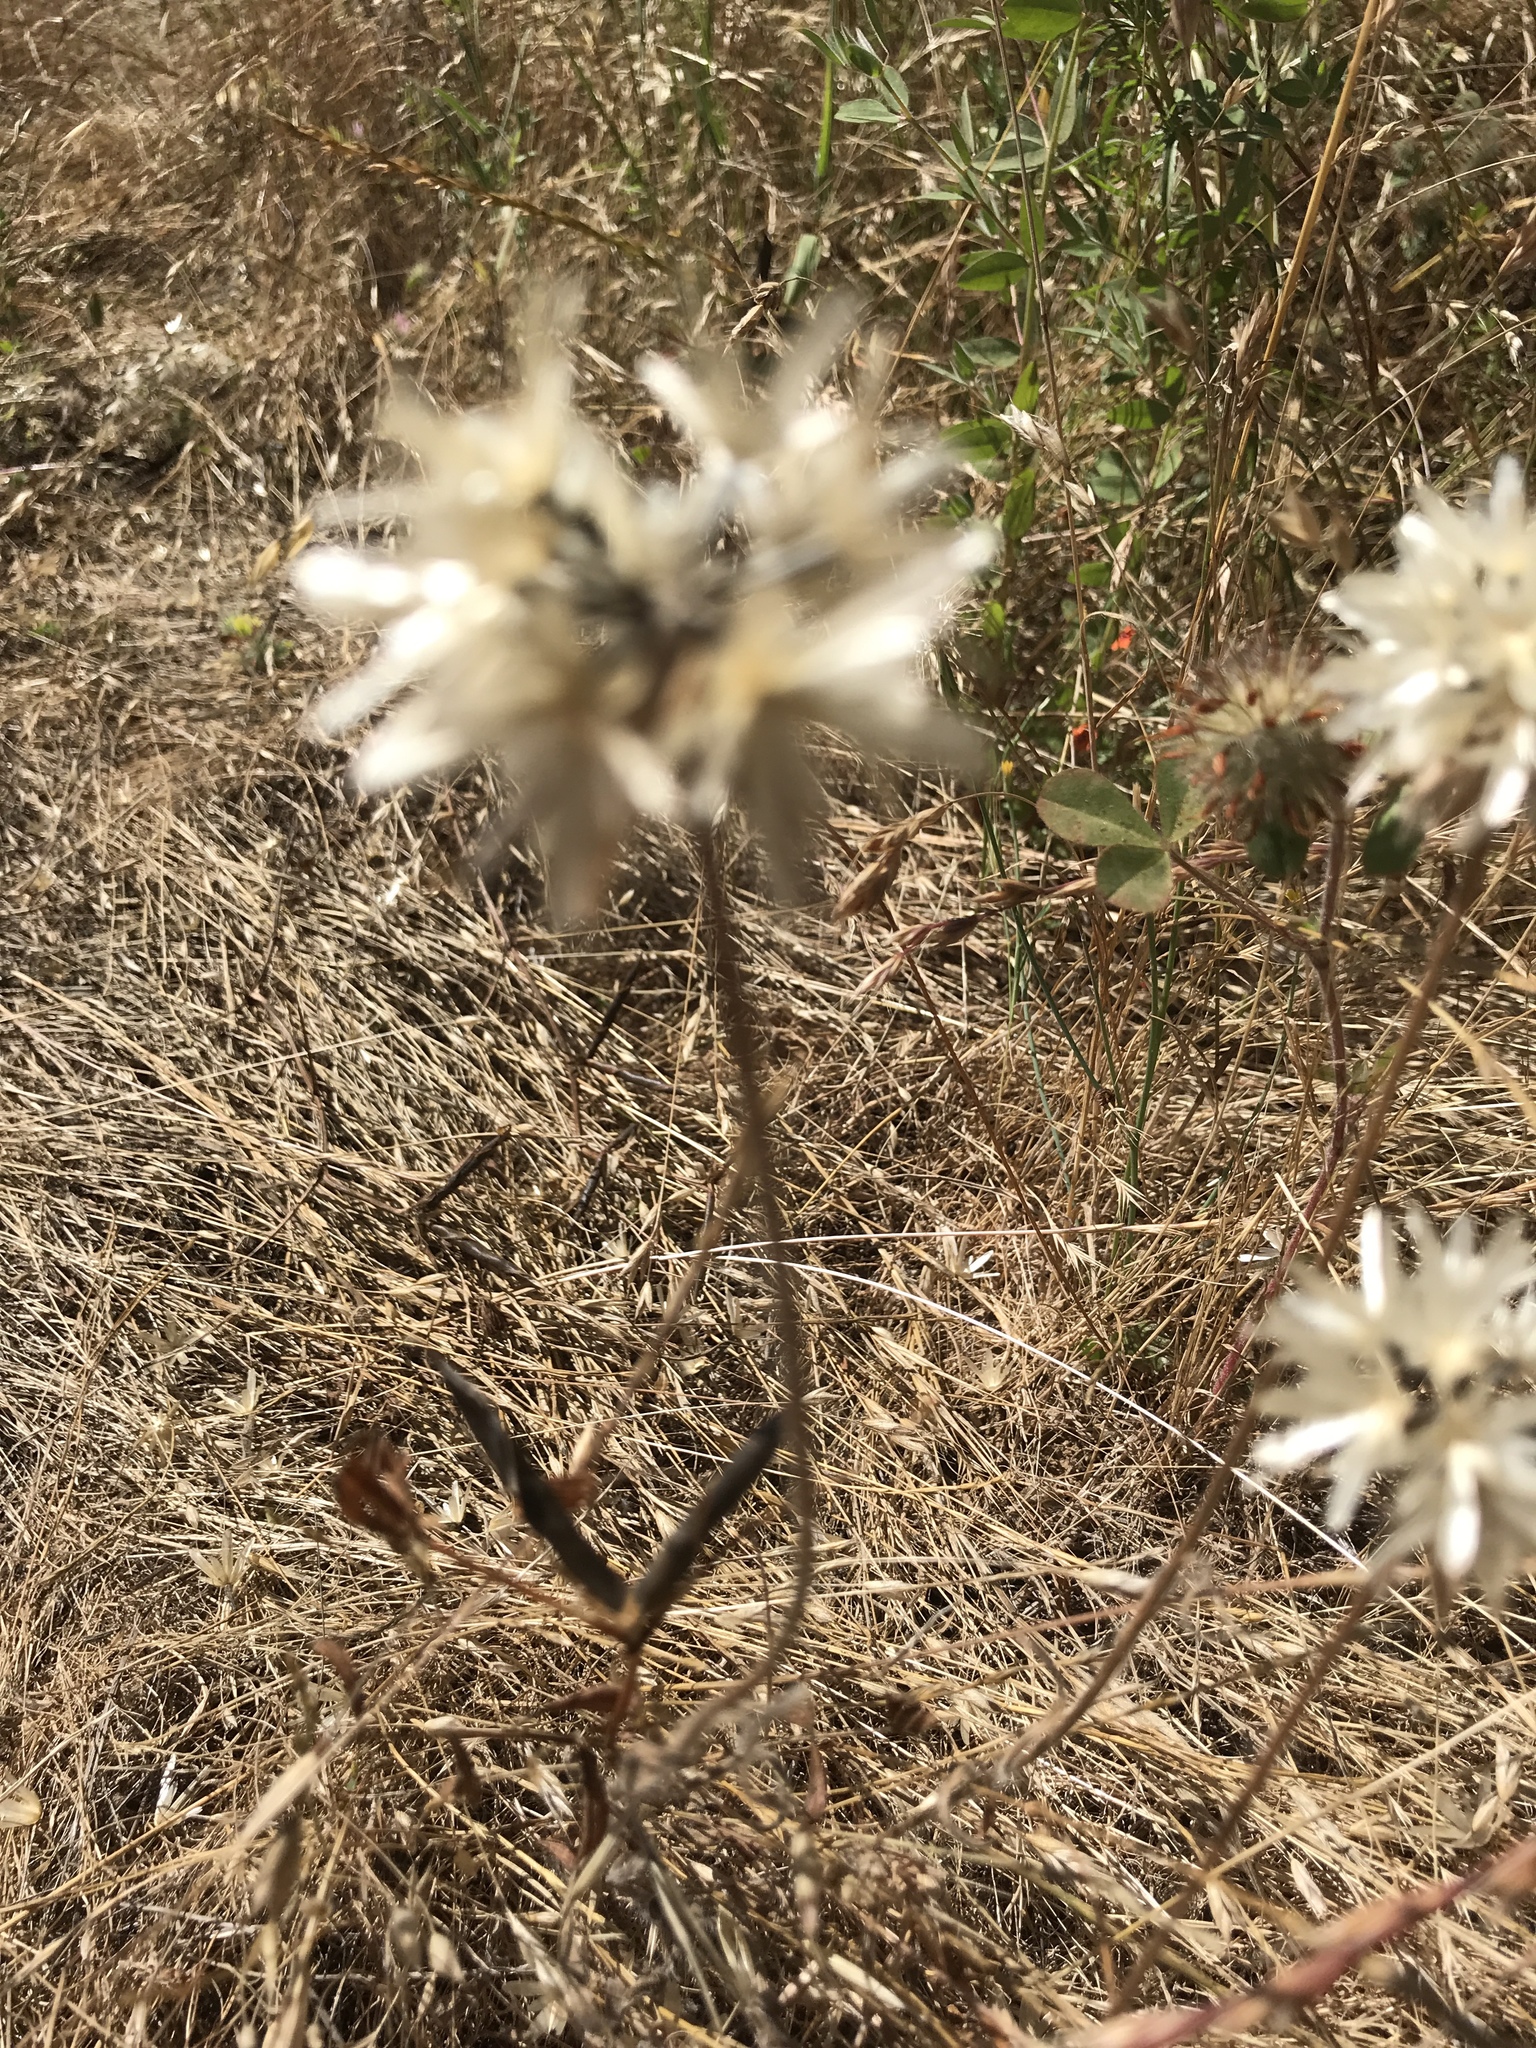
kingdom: Plantae
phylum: Tracheophyta
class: Magnoliopsida
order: Asterales
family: Asteraceae
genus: Achyrachaena
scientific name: Achyrachaena mollis
